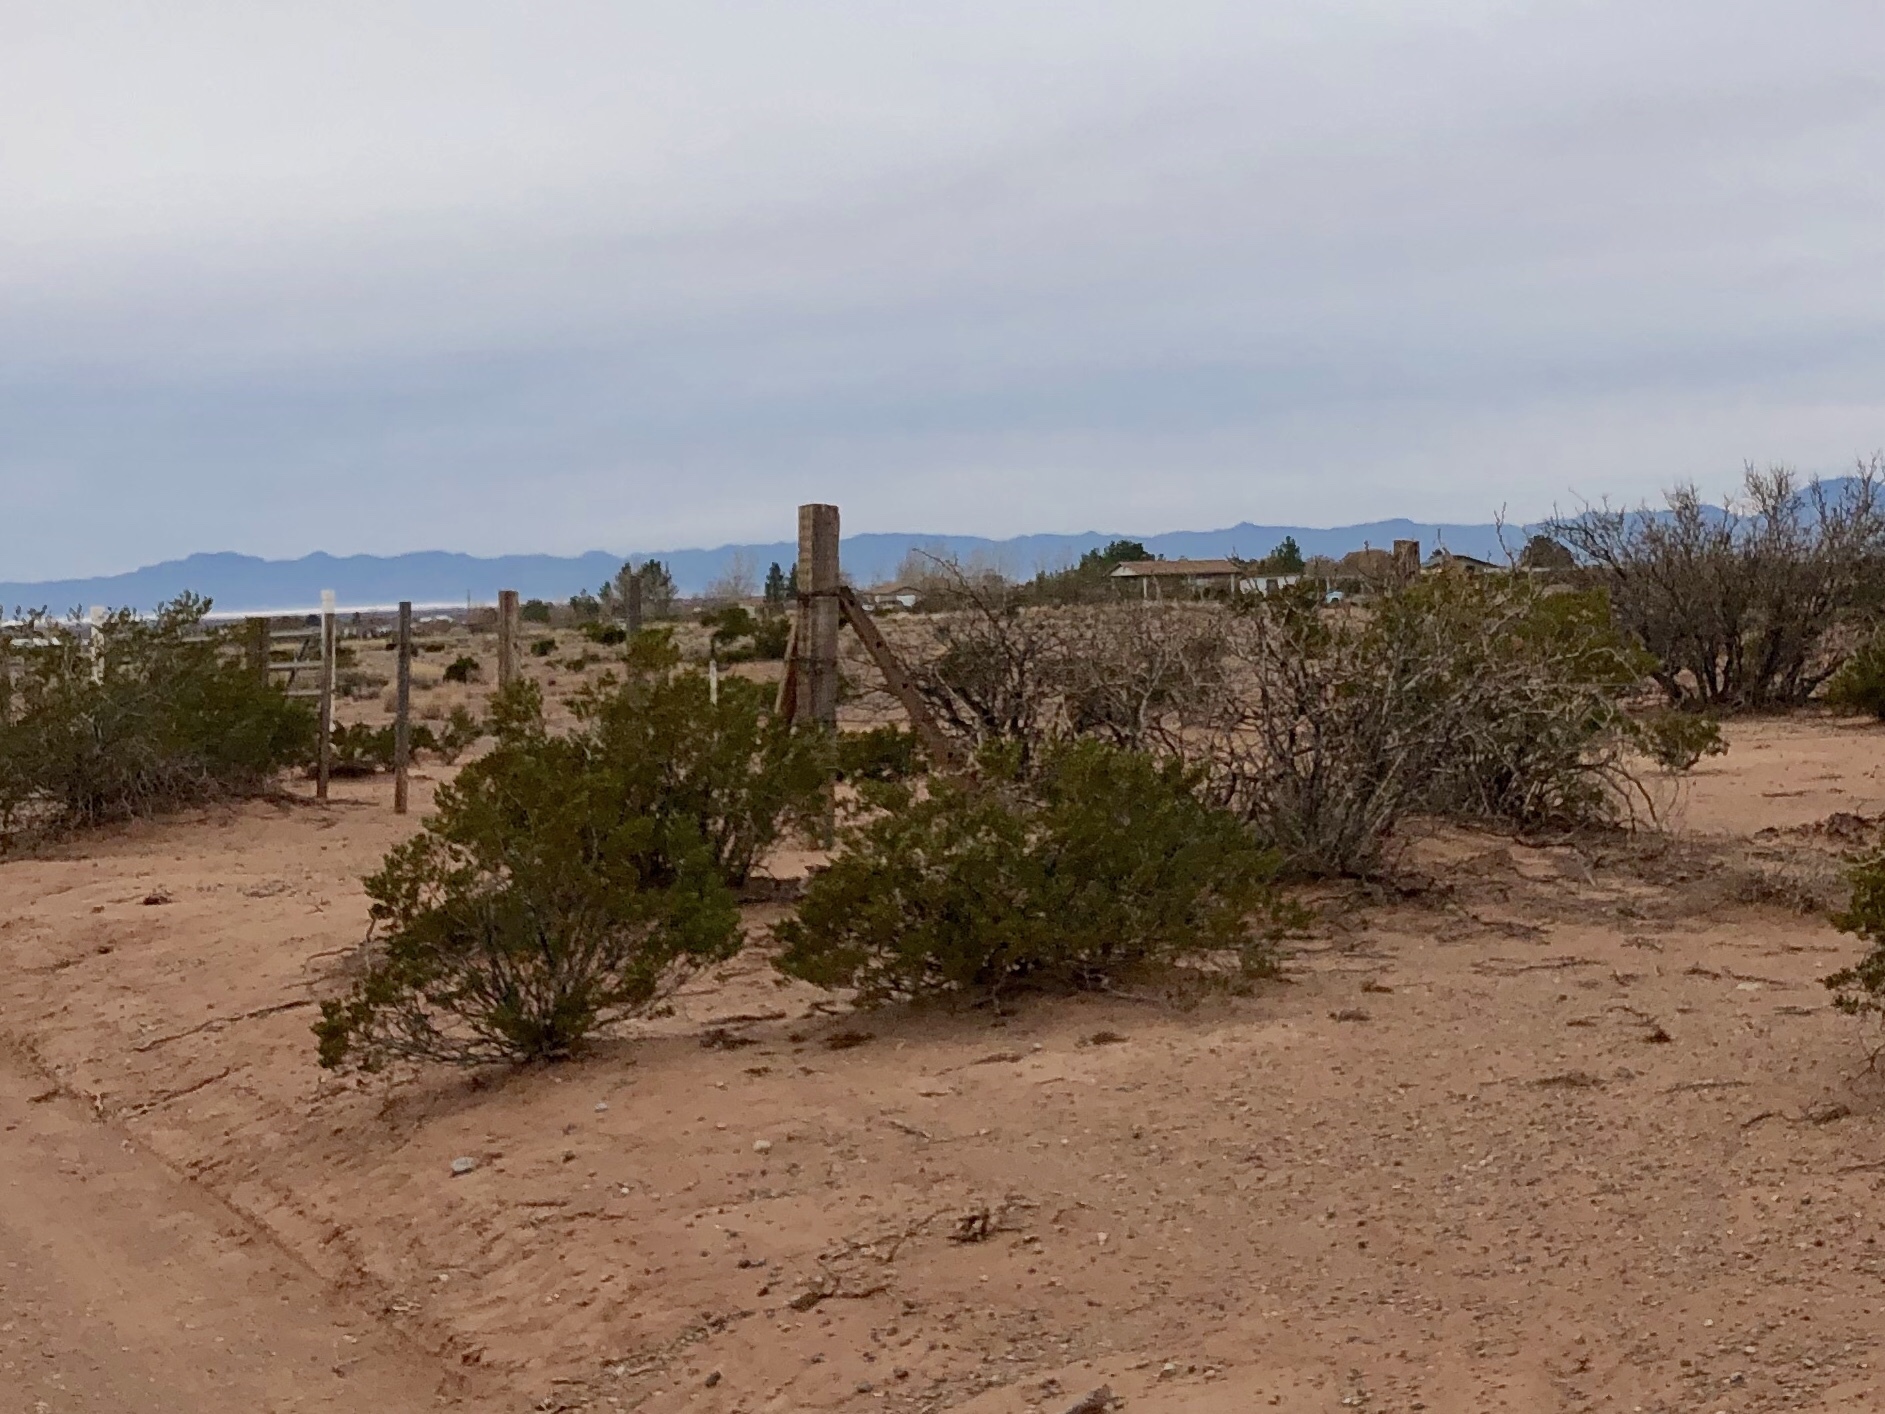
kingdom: Plantae
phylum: Tracheophyta
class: Magnoliopsida
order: Zygophyllales
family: Zygophyllaceae
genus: Larrea
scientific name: Larrea tridentata
